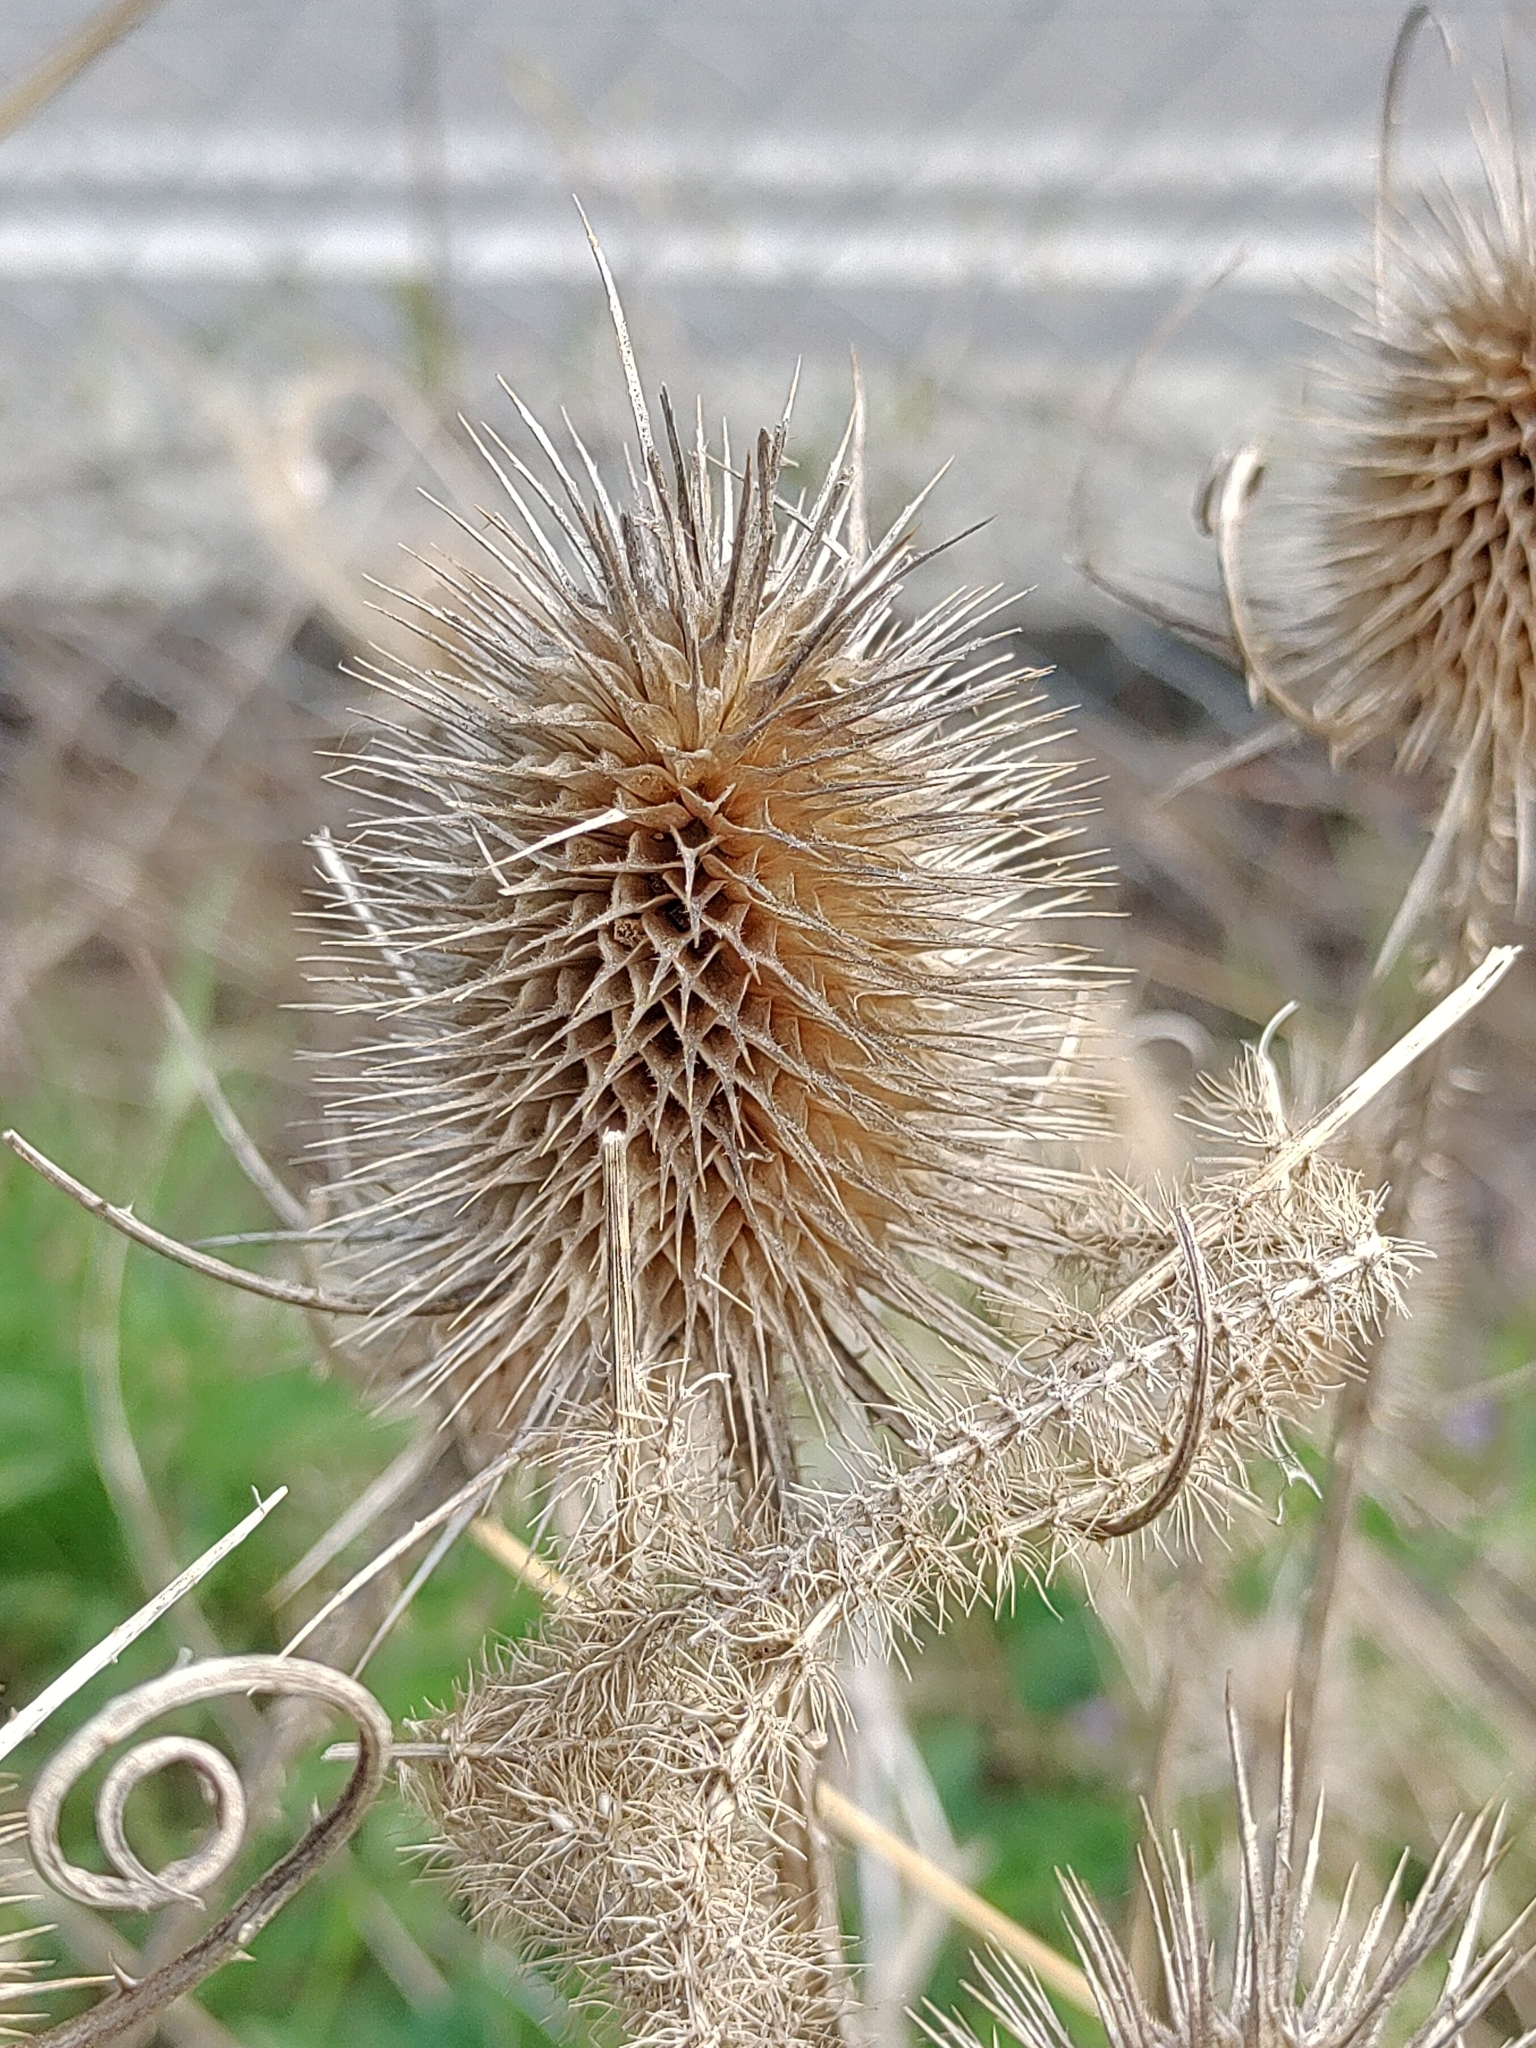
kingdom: Plantae
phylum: Tracheophyta
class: Magnoliopsida
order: Dipsacales
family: Caprifoliaceae
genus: Dipsacus
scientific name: Dipsacus fullonum
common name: Teasel
